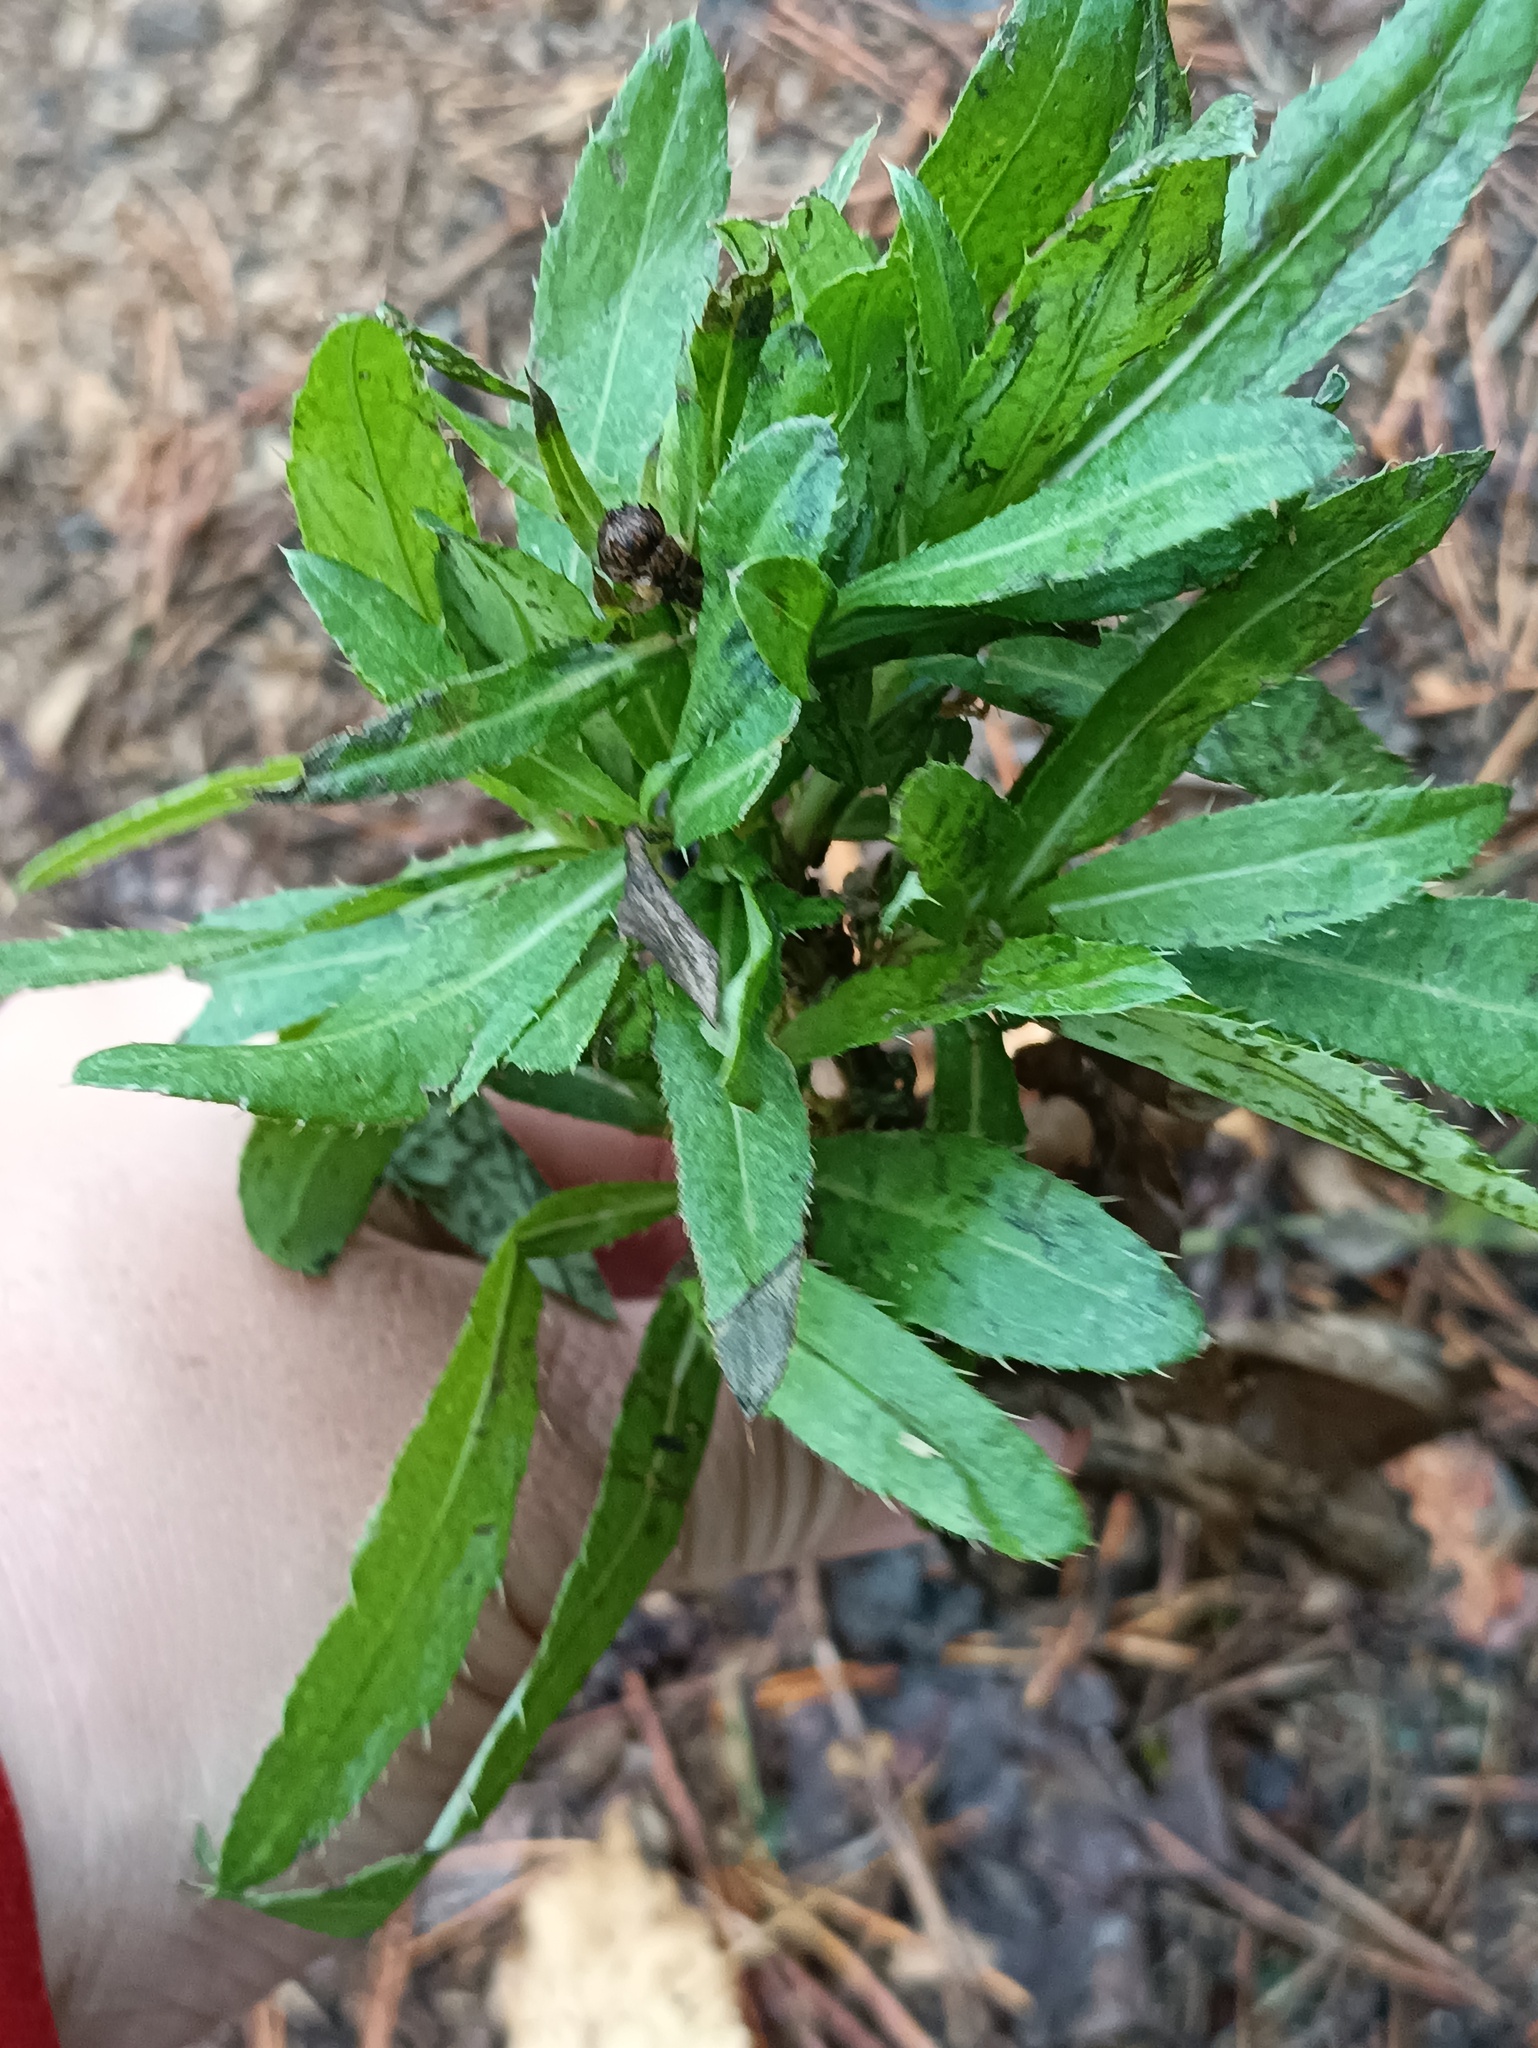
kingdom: Plantae
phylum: Tracheophyta
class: Magnoliopsida
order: Asterales
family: Asteraceae
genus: Cirsium
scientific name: Cirsium arvense
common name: Creeping thistle
